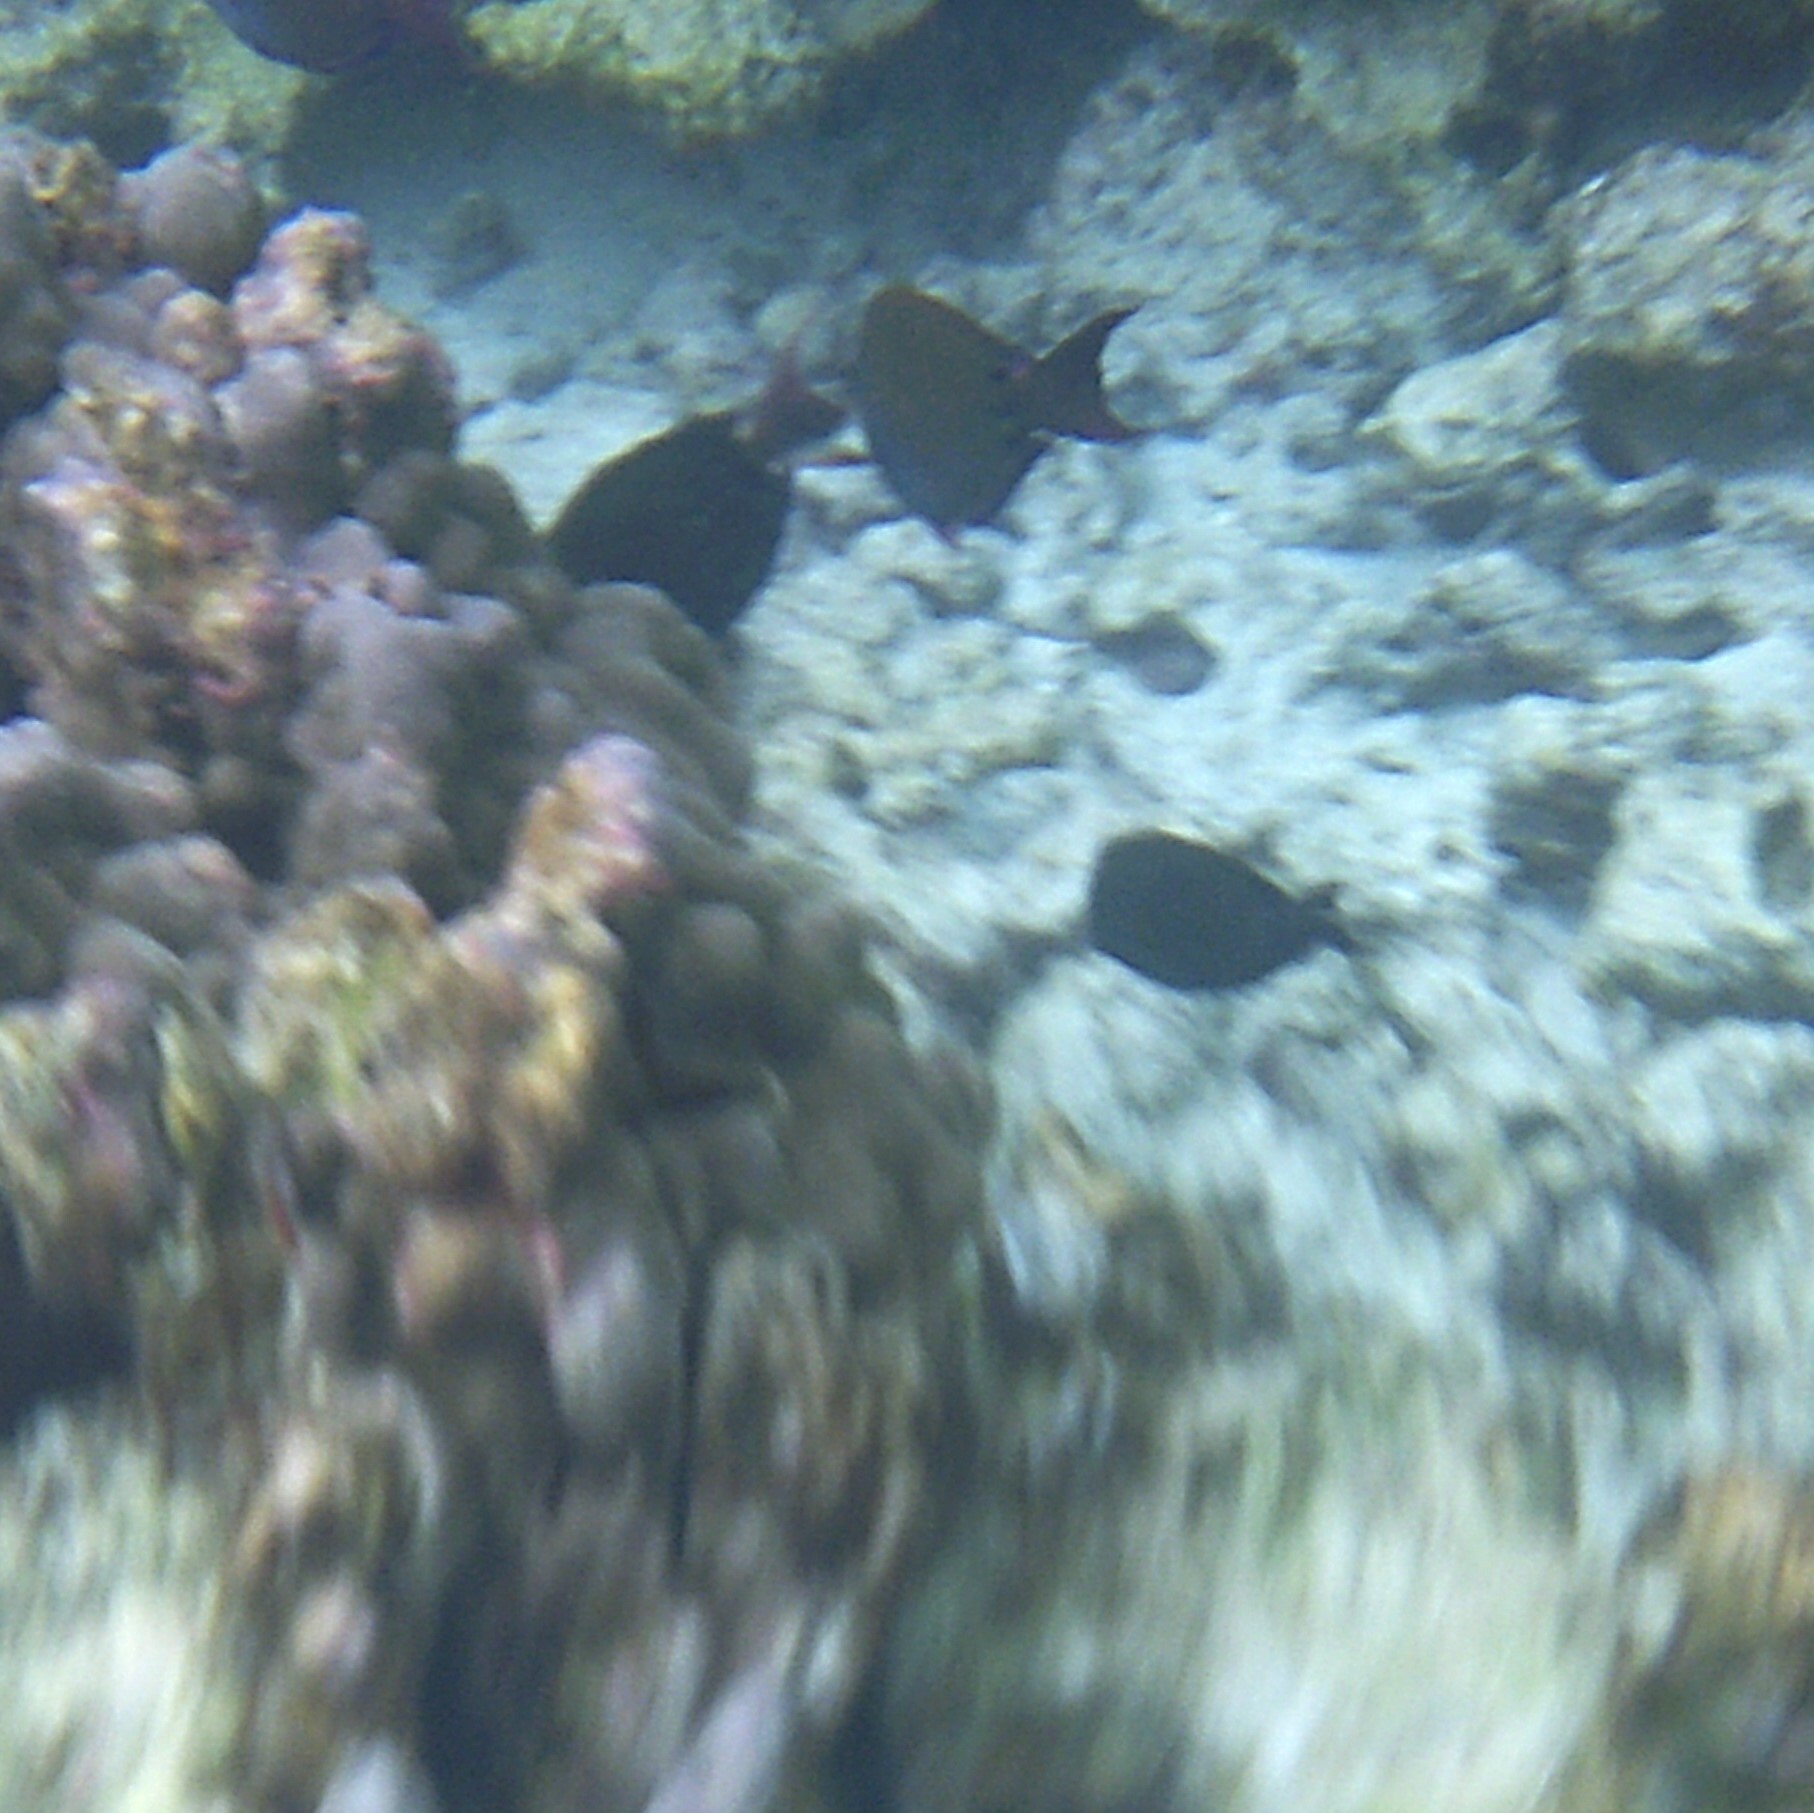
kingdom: Animalia
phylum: Chordata
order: Perciformes
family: Acanthuridae
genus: Acanthurus
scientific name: Acanthurus nigrofuscus
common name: Blackspot surgeonfish
